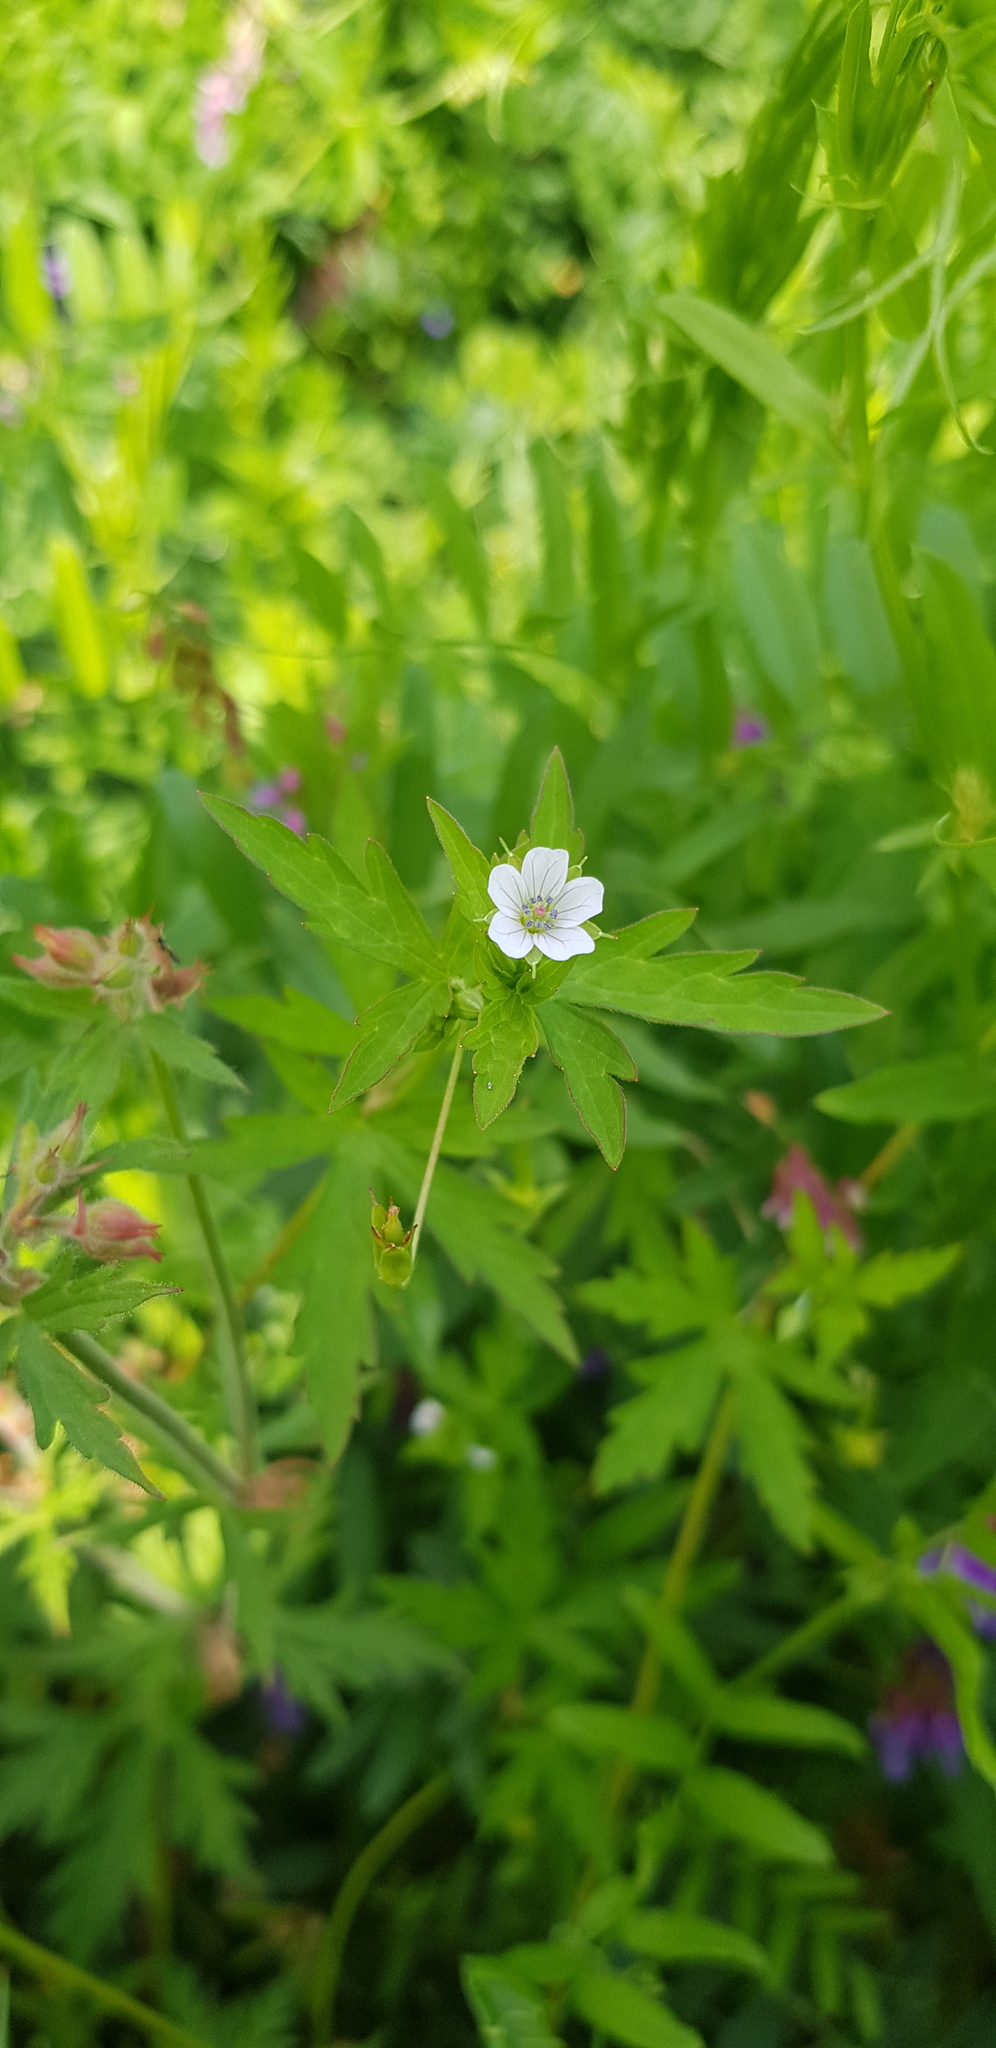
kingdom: Plantae
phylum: Tracheophyta
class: Magnoliopsida
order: Geraniales
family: Geraniaceae
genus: Geranium
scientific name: Geranium sibiricum
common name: Siberian crane's-bill
